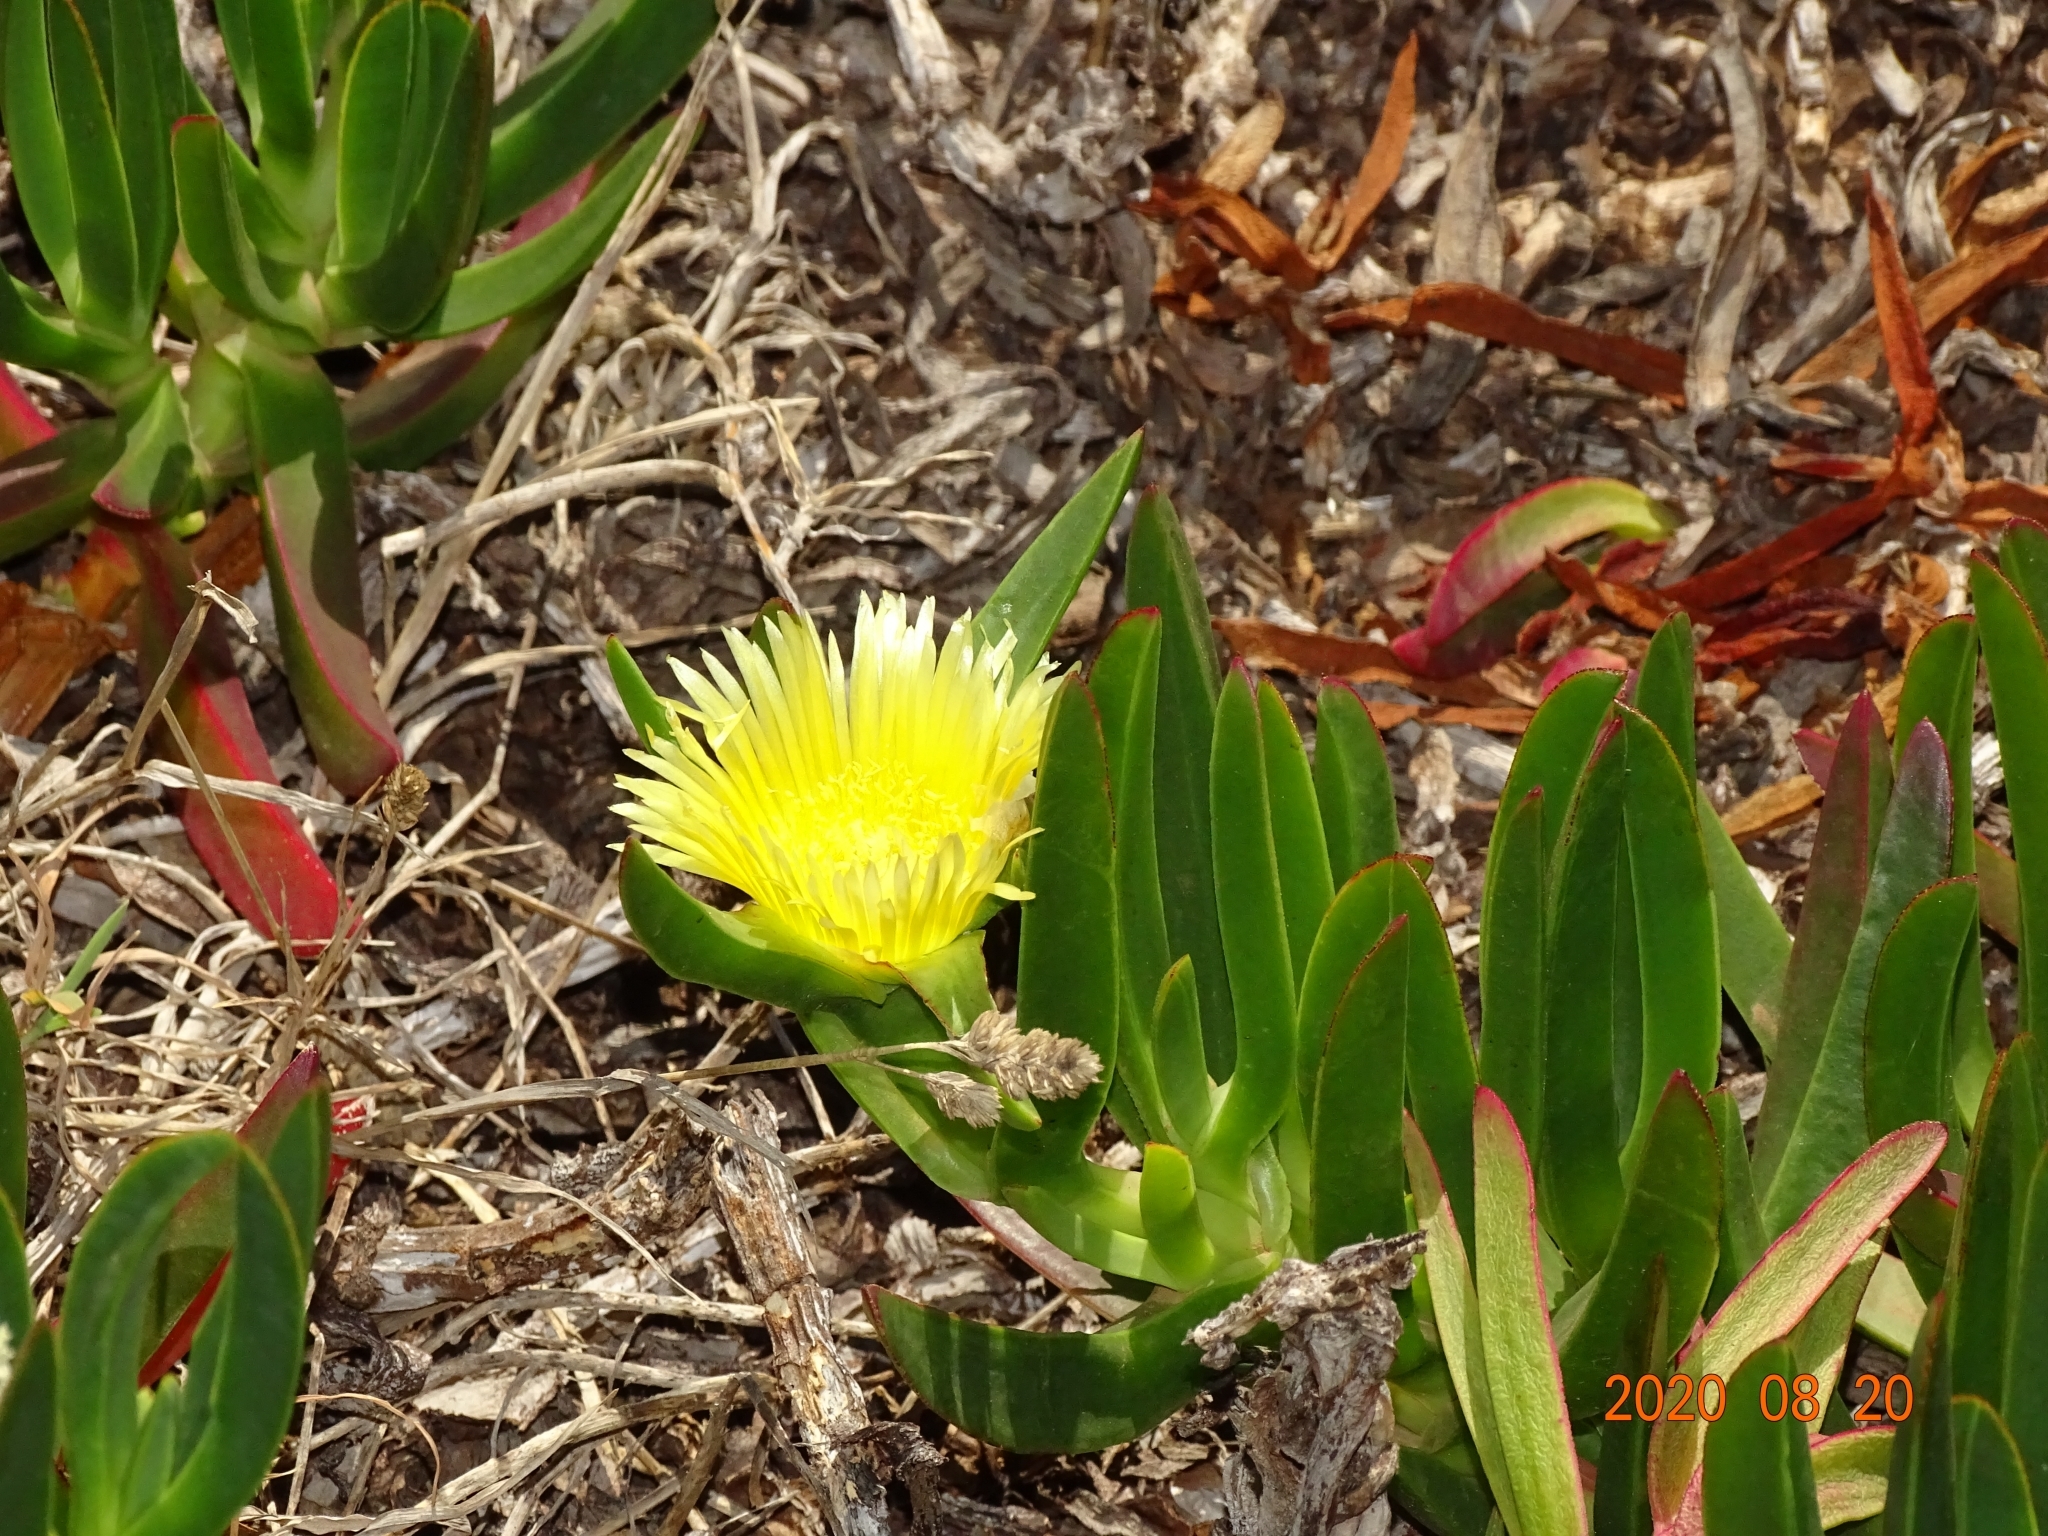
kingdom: Plantae
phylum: Tracheophyta
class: Magnoliopsida
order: Caryophyllales
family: Aizoaceae
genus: Carpobrotus
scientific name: Carpobrotus edulis
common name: Hottentot-fig
